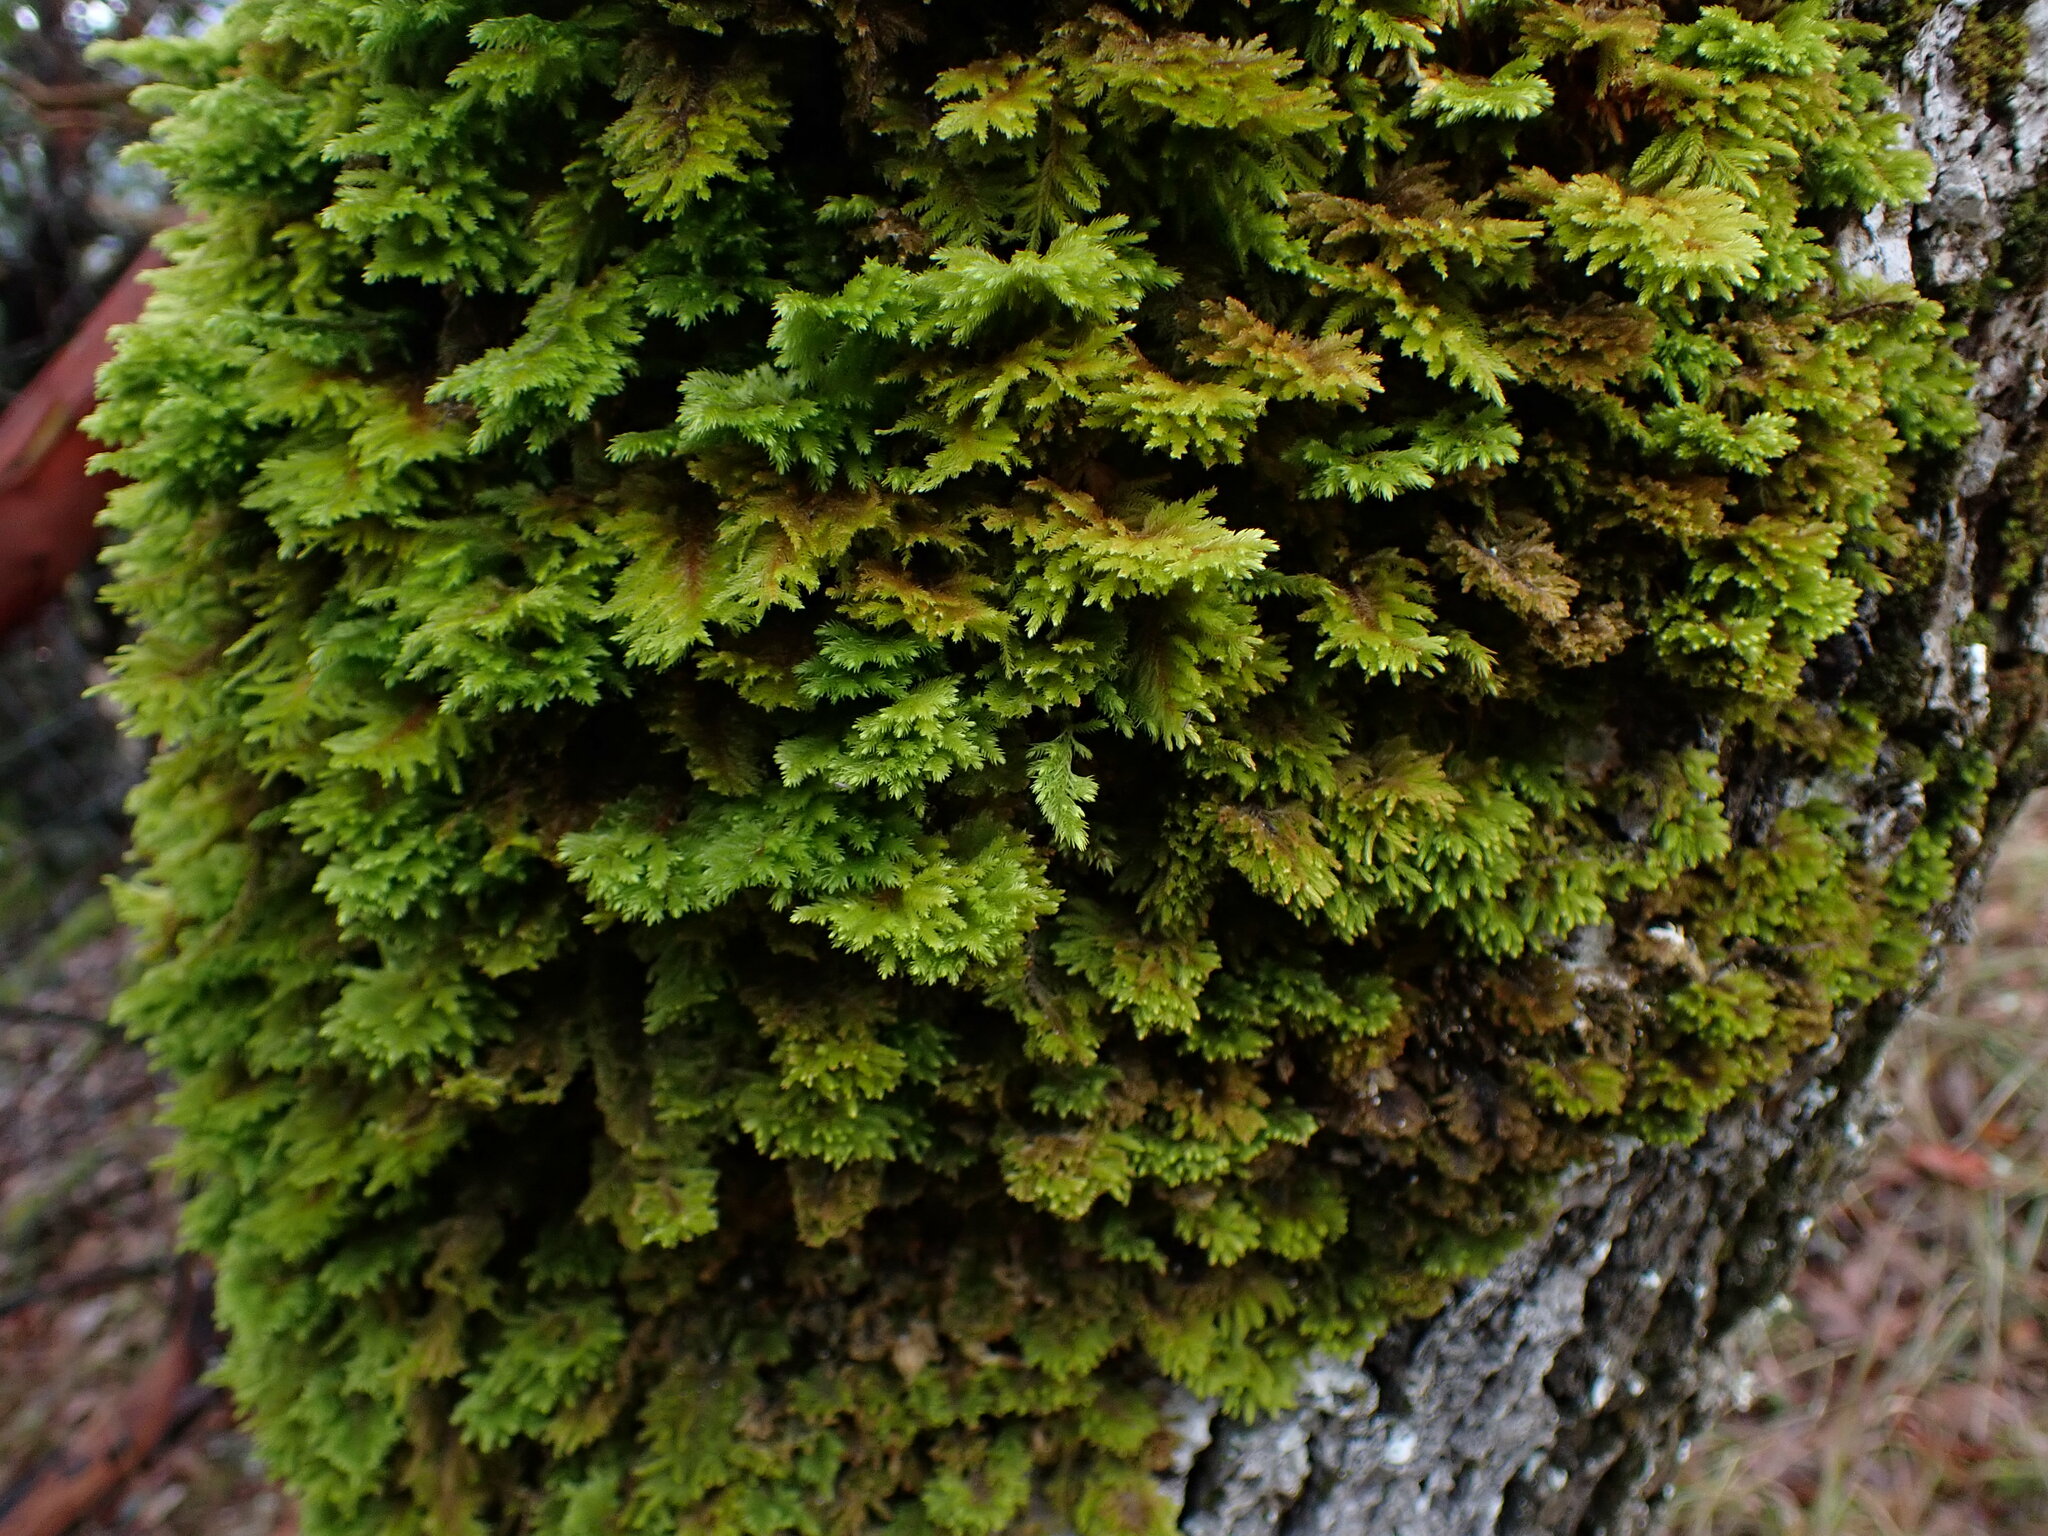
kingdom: Plantae
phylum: Bryophyta
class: Bryopsida
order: Hypnales
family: Cryphaeaceae
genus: Dendroalsia
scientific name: Dendroalsia abietina
